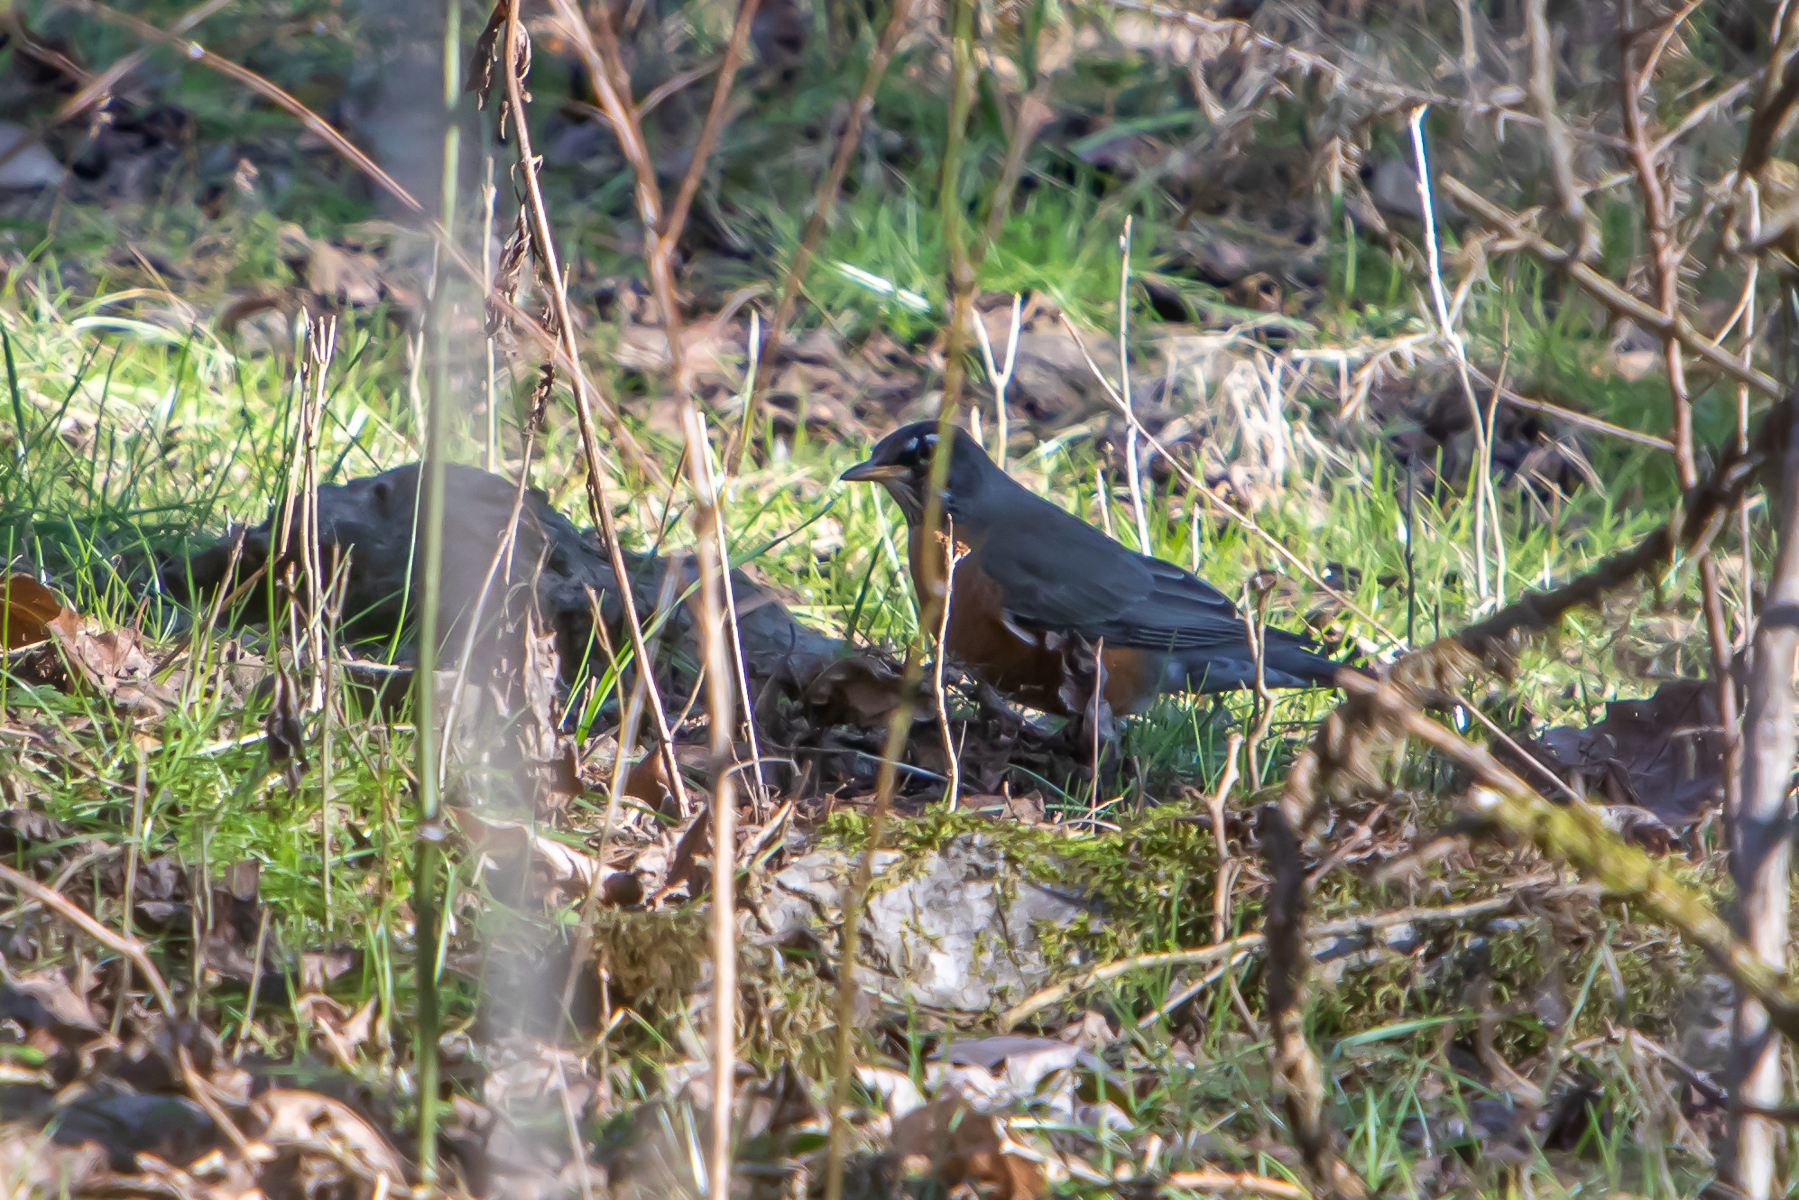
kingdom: Animalia
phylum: Chordata
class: Aves
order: Passeriformes
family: Turdidae
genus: Turdus
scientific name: Turdus migratorius
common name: American robin
